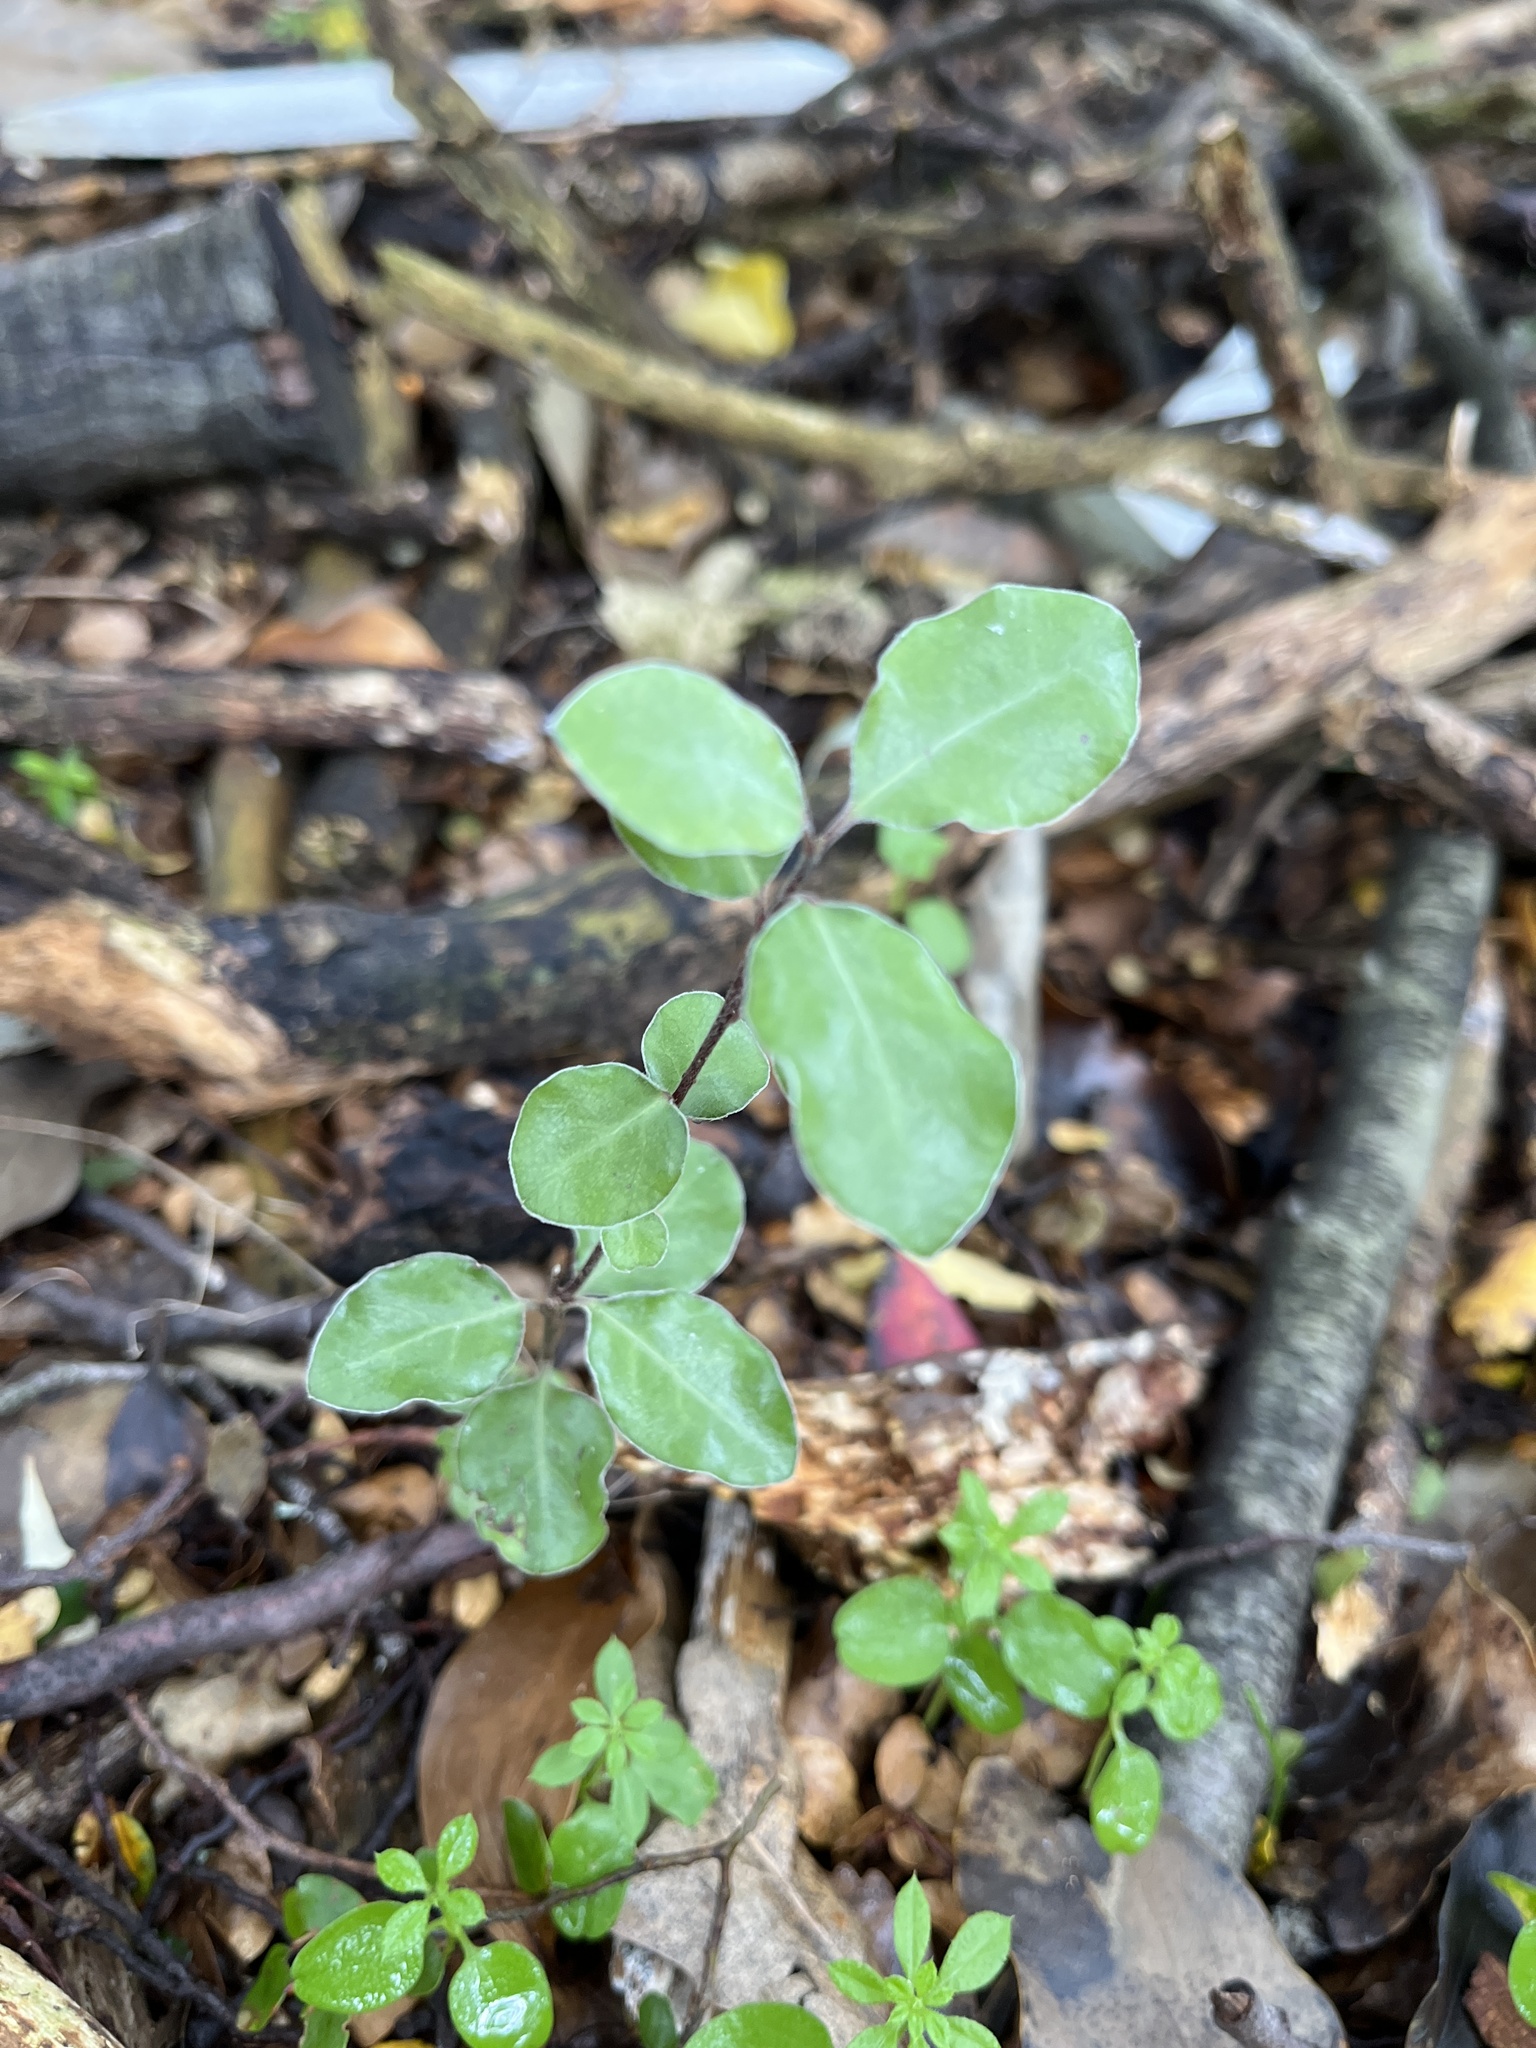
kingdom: Plantae
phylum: Tracheophyta
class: Magnoliopsida
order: Apiales
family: Pittosporaceae
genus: Pittosporum
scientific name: Pittosporum tenuifolium
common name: Kohuhu
